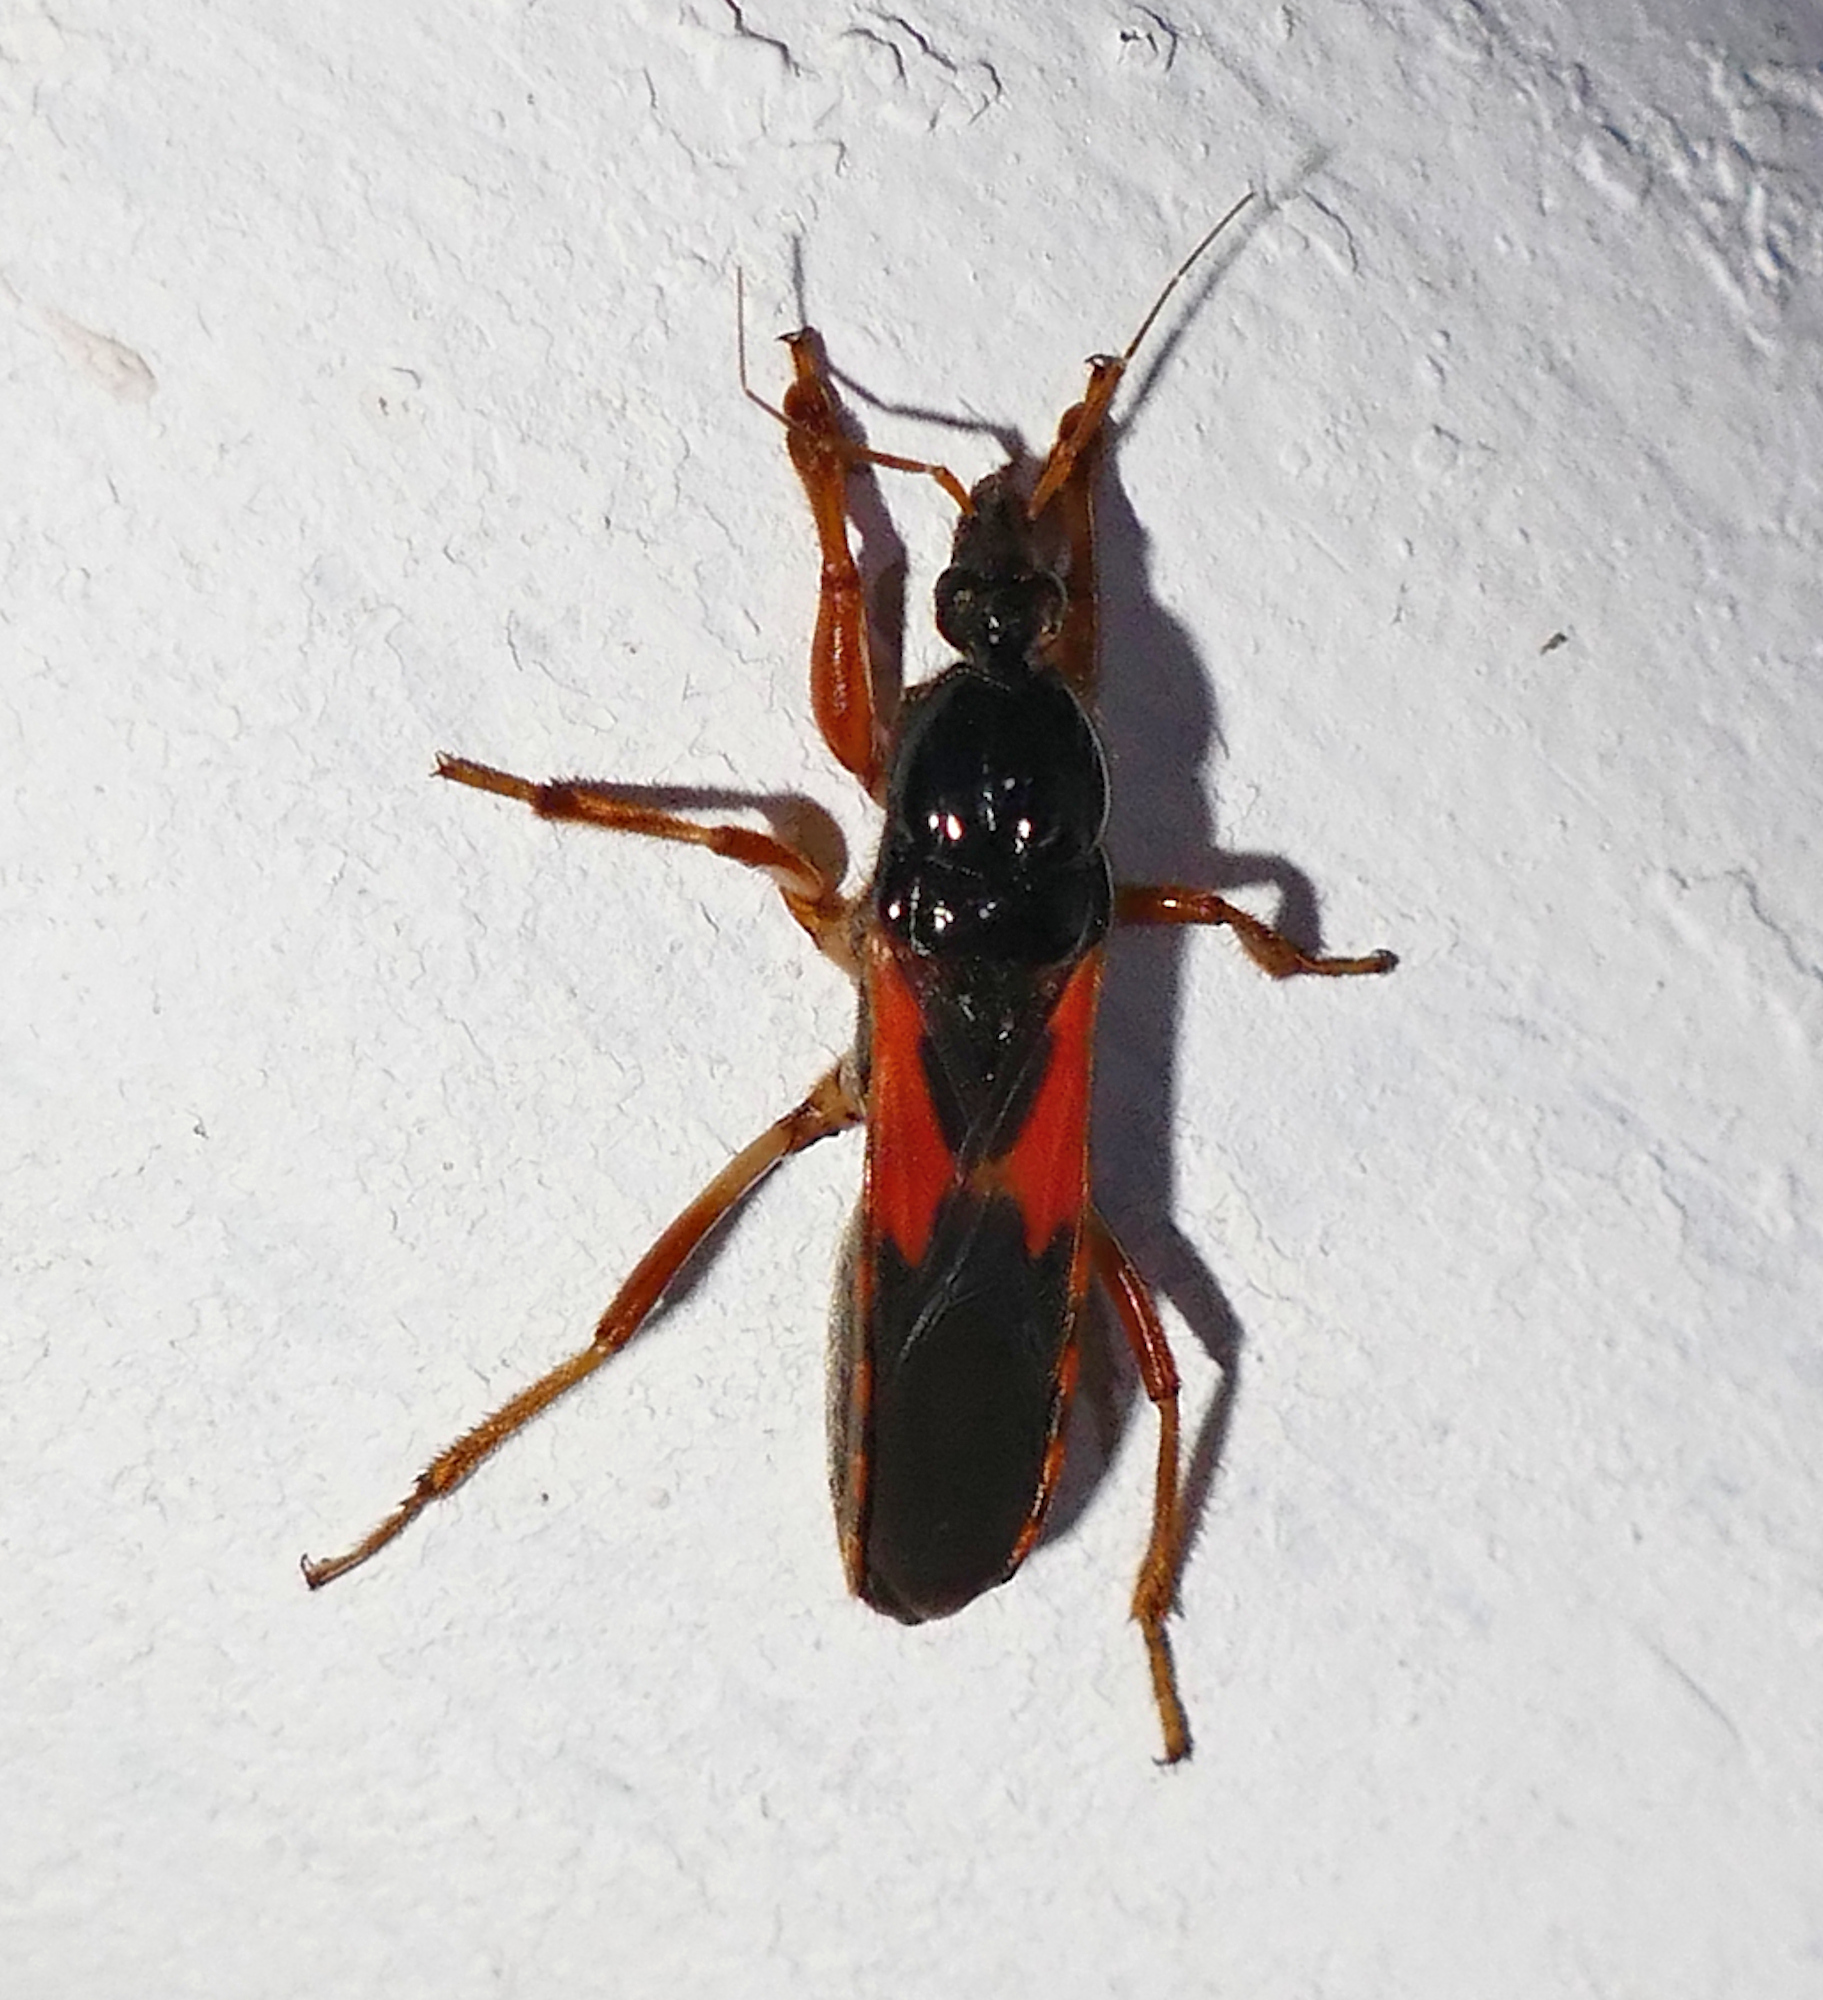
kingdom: Animalia
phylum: Arthropoda
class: Insecta
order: Hemiptera
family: Reduviidae
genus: Sirthenea
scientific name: Sirthenea stria
